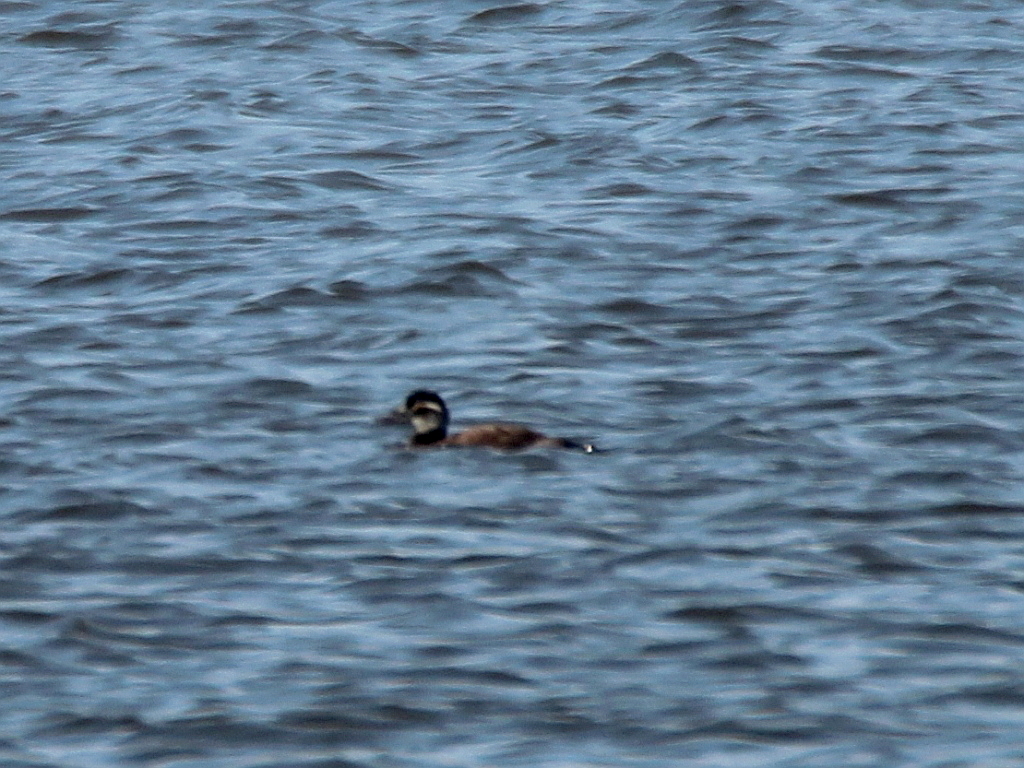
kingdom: Animalia
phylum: Chordata
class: Aves
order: Anseriformes
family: Anatidae
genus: Oxyura
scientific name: Oxyura leucocephala
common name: White-headed duck
